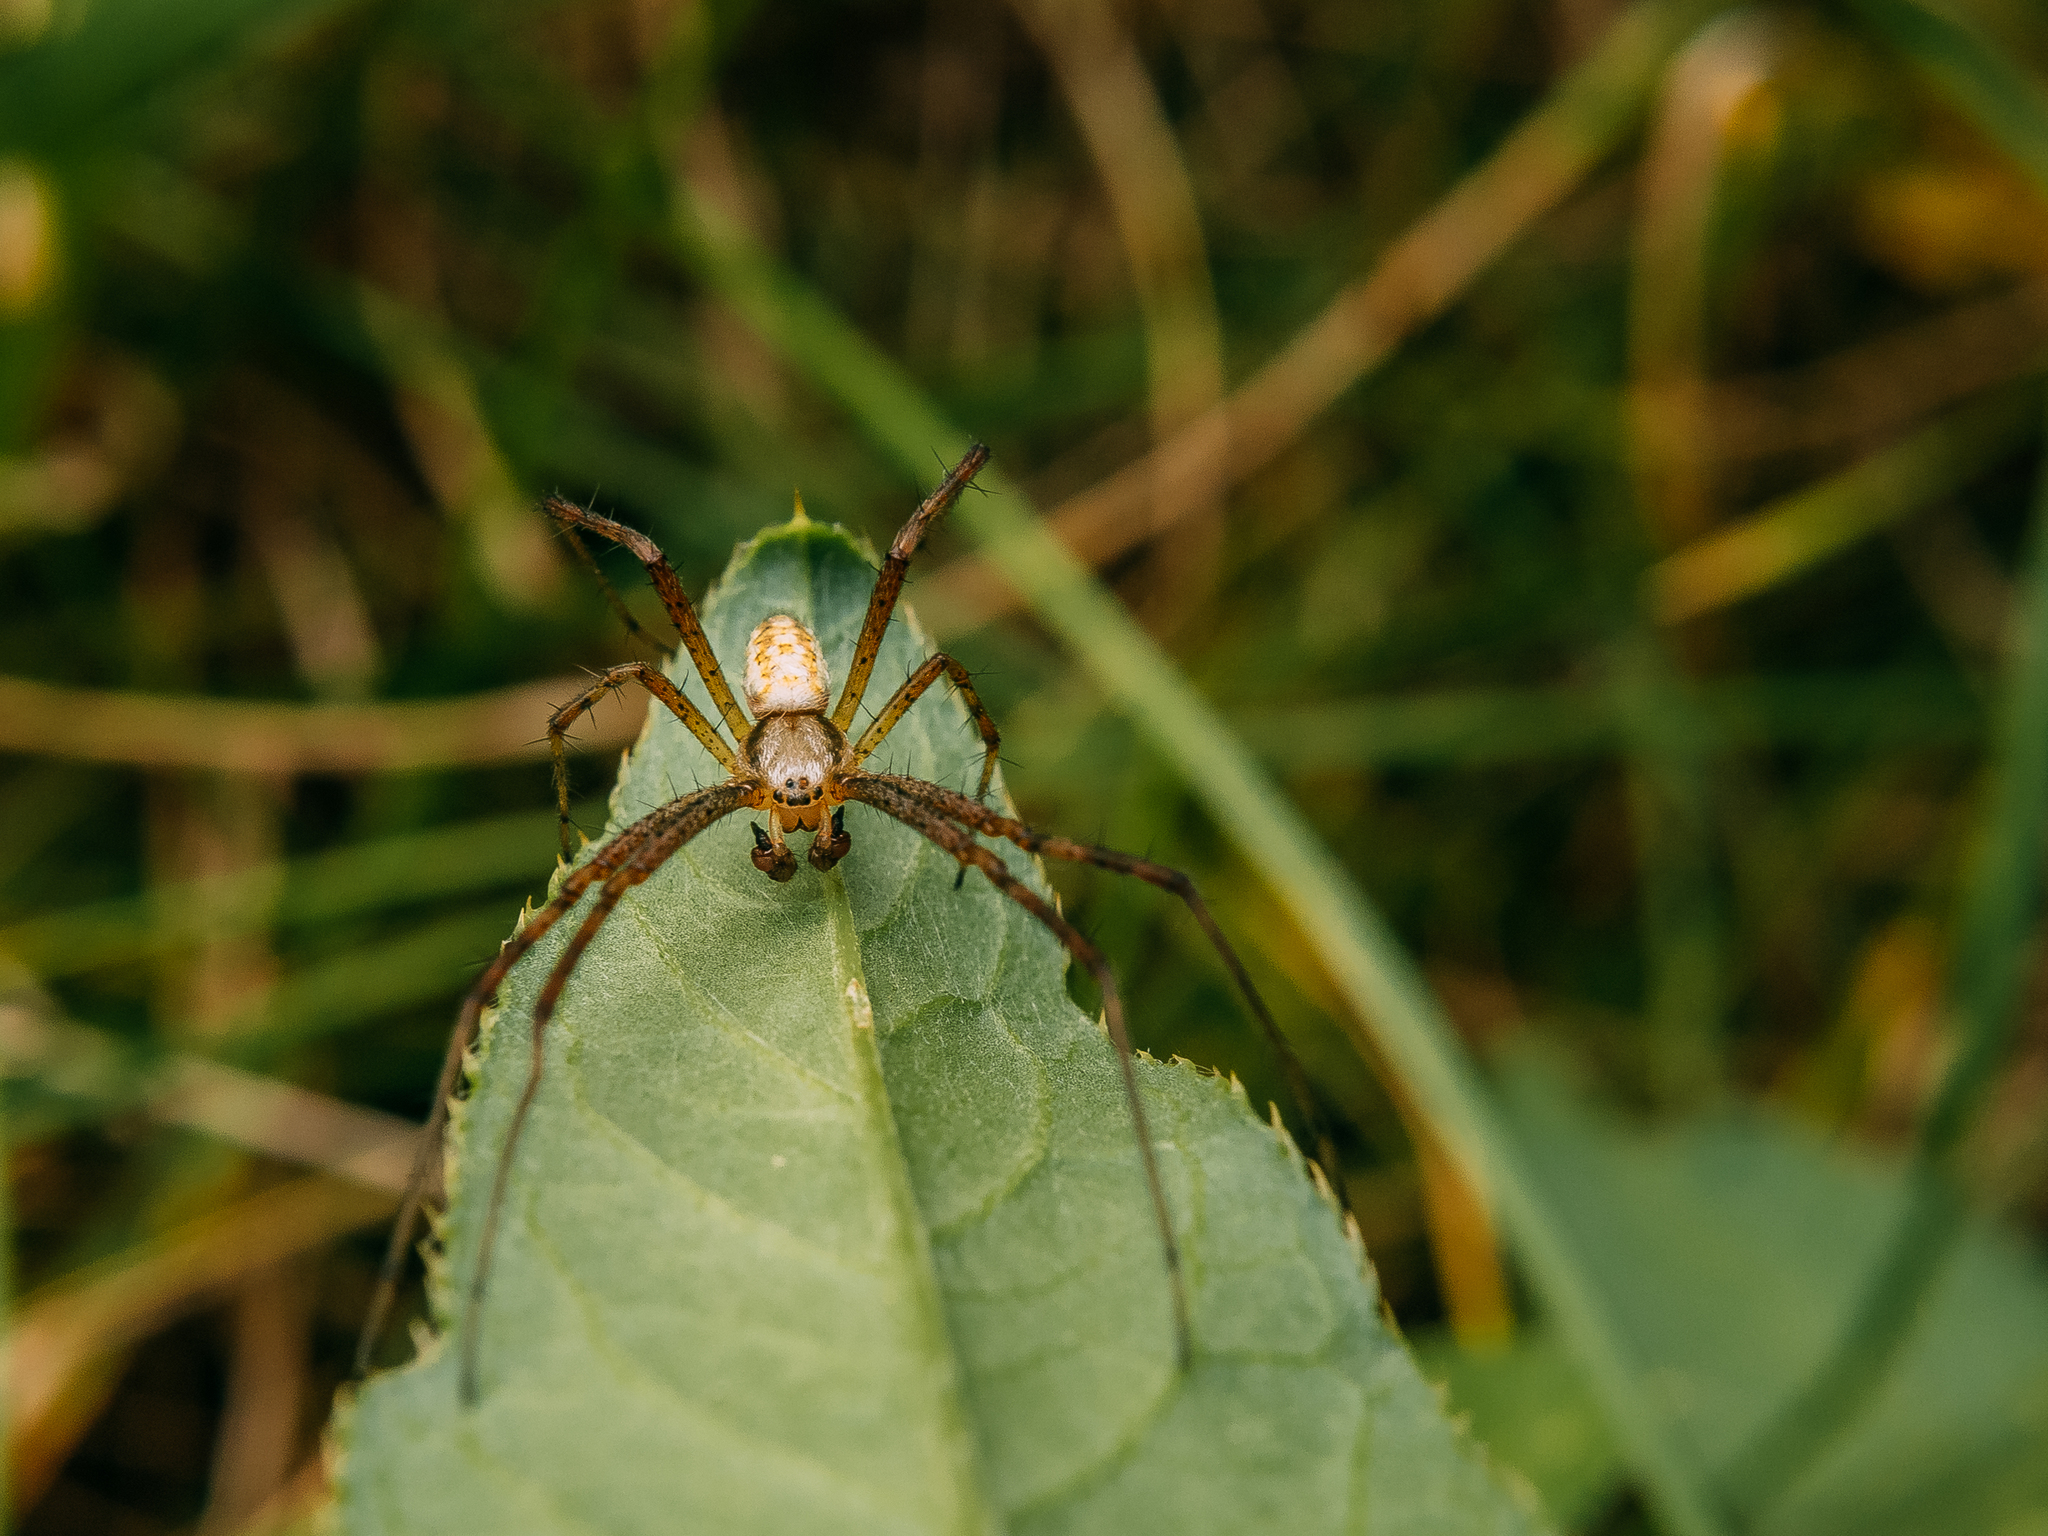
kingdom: Animalia
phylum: Arthropoda
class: Arachnida
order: Araneae
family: Araneidae
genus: Argiope
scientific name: Argiope bruennichi
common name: Wasp spider
